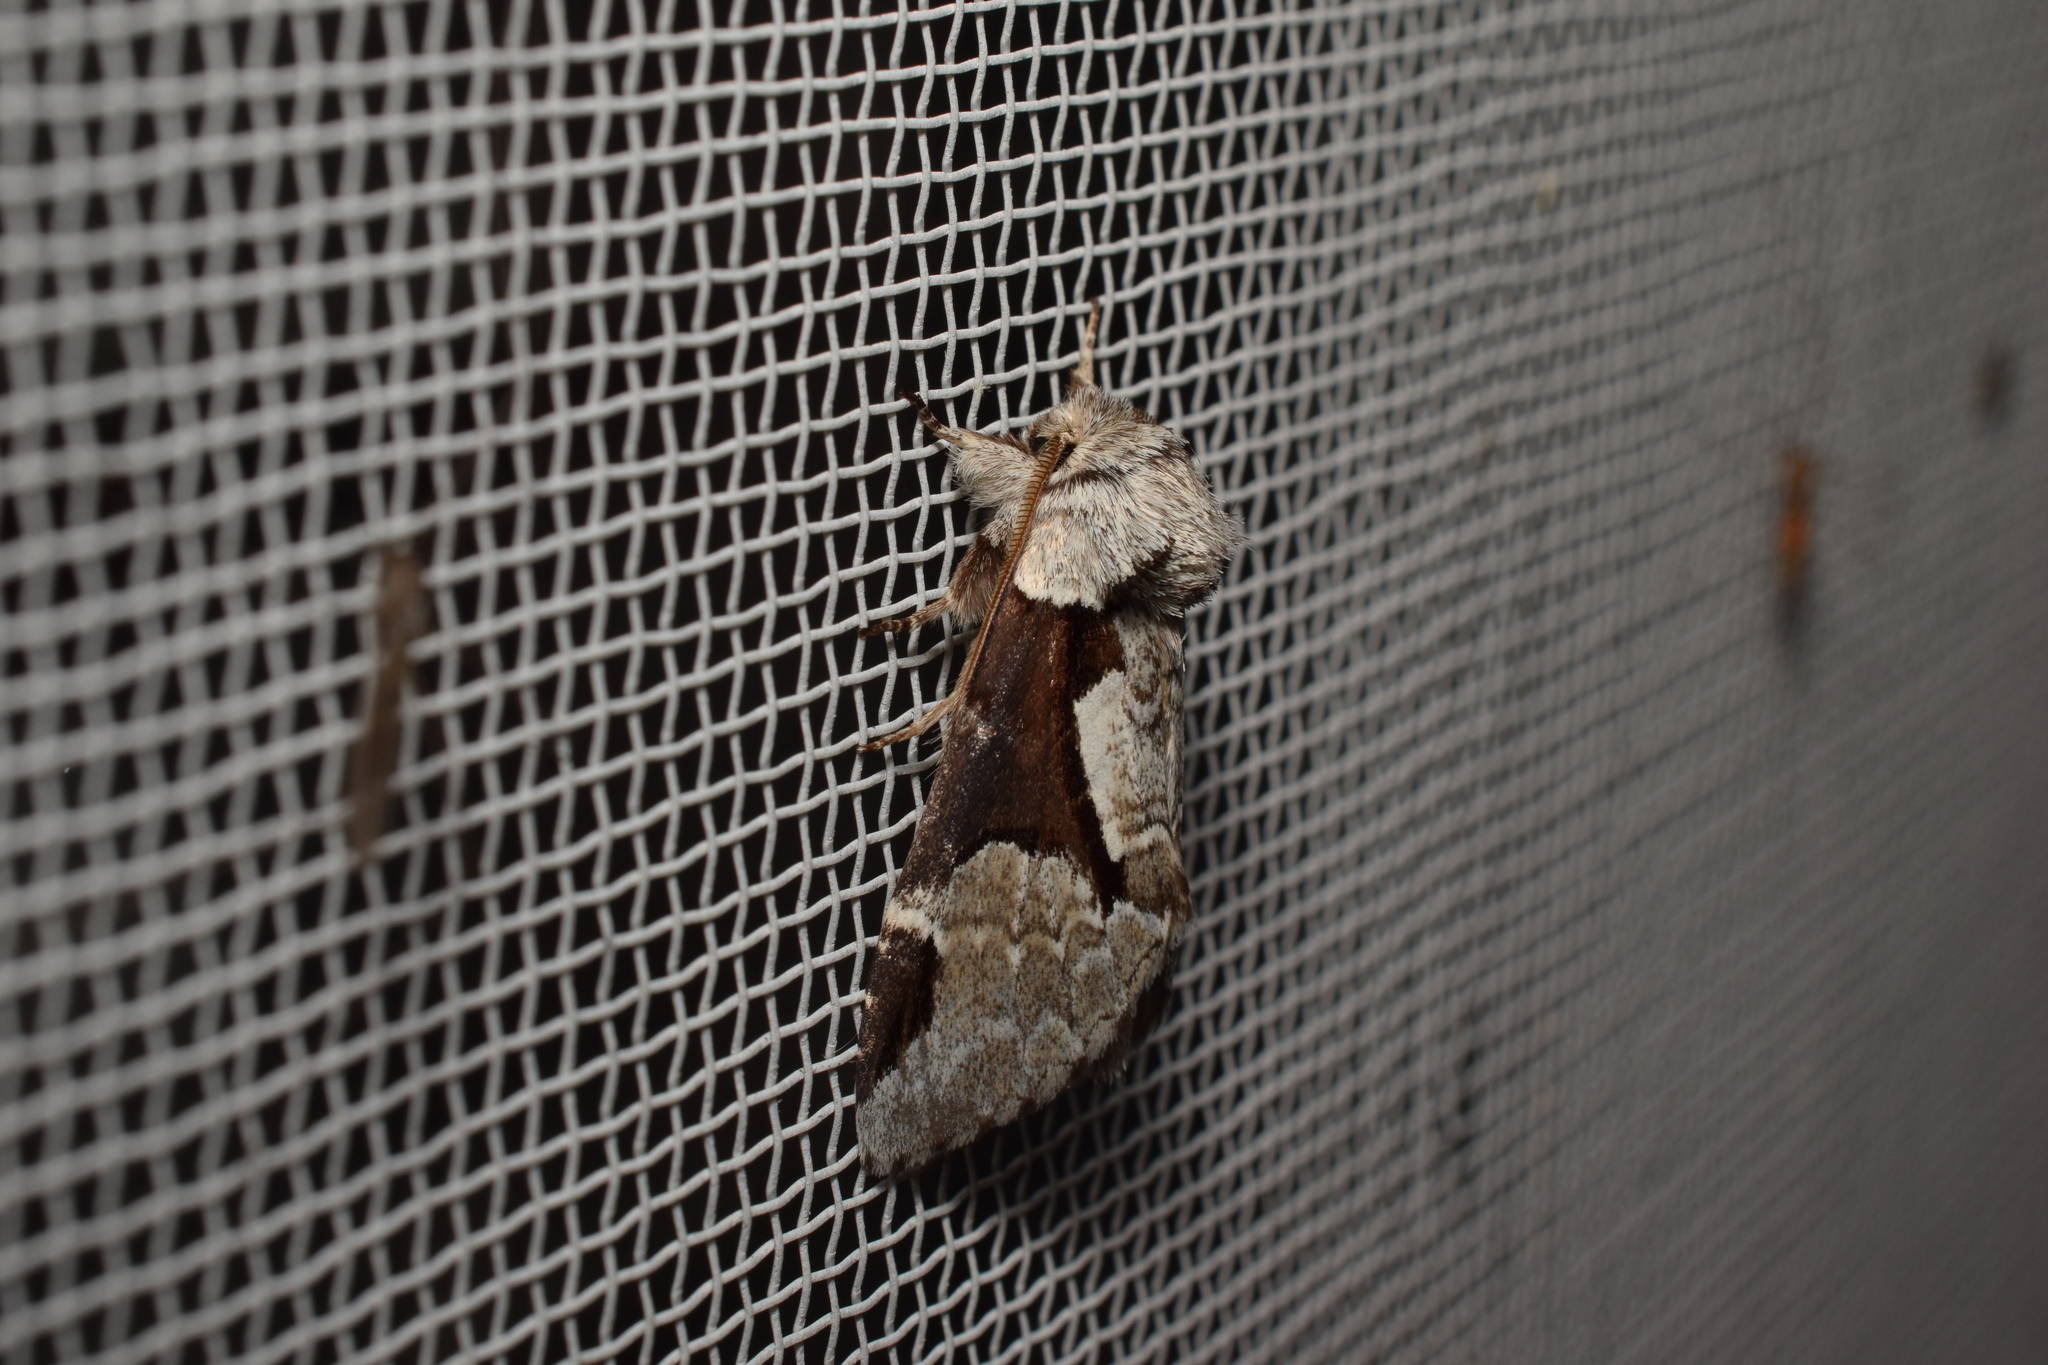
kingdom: Animalia
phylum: Arthropoda
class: Insecta
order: Lepidoptera
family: Notodontidae
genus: Wilemanus
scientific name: Wilemanus bidentatus
